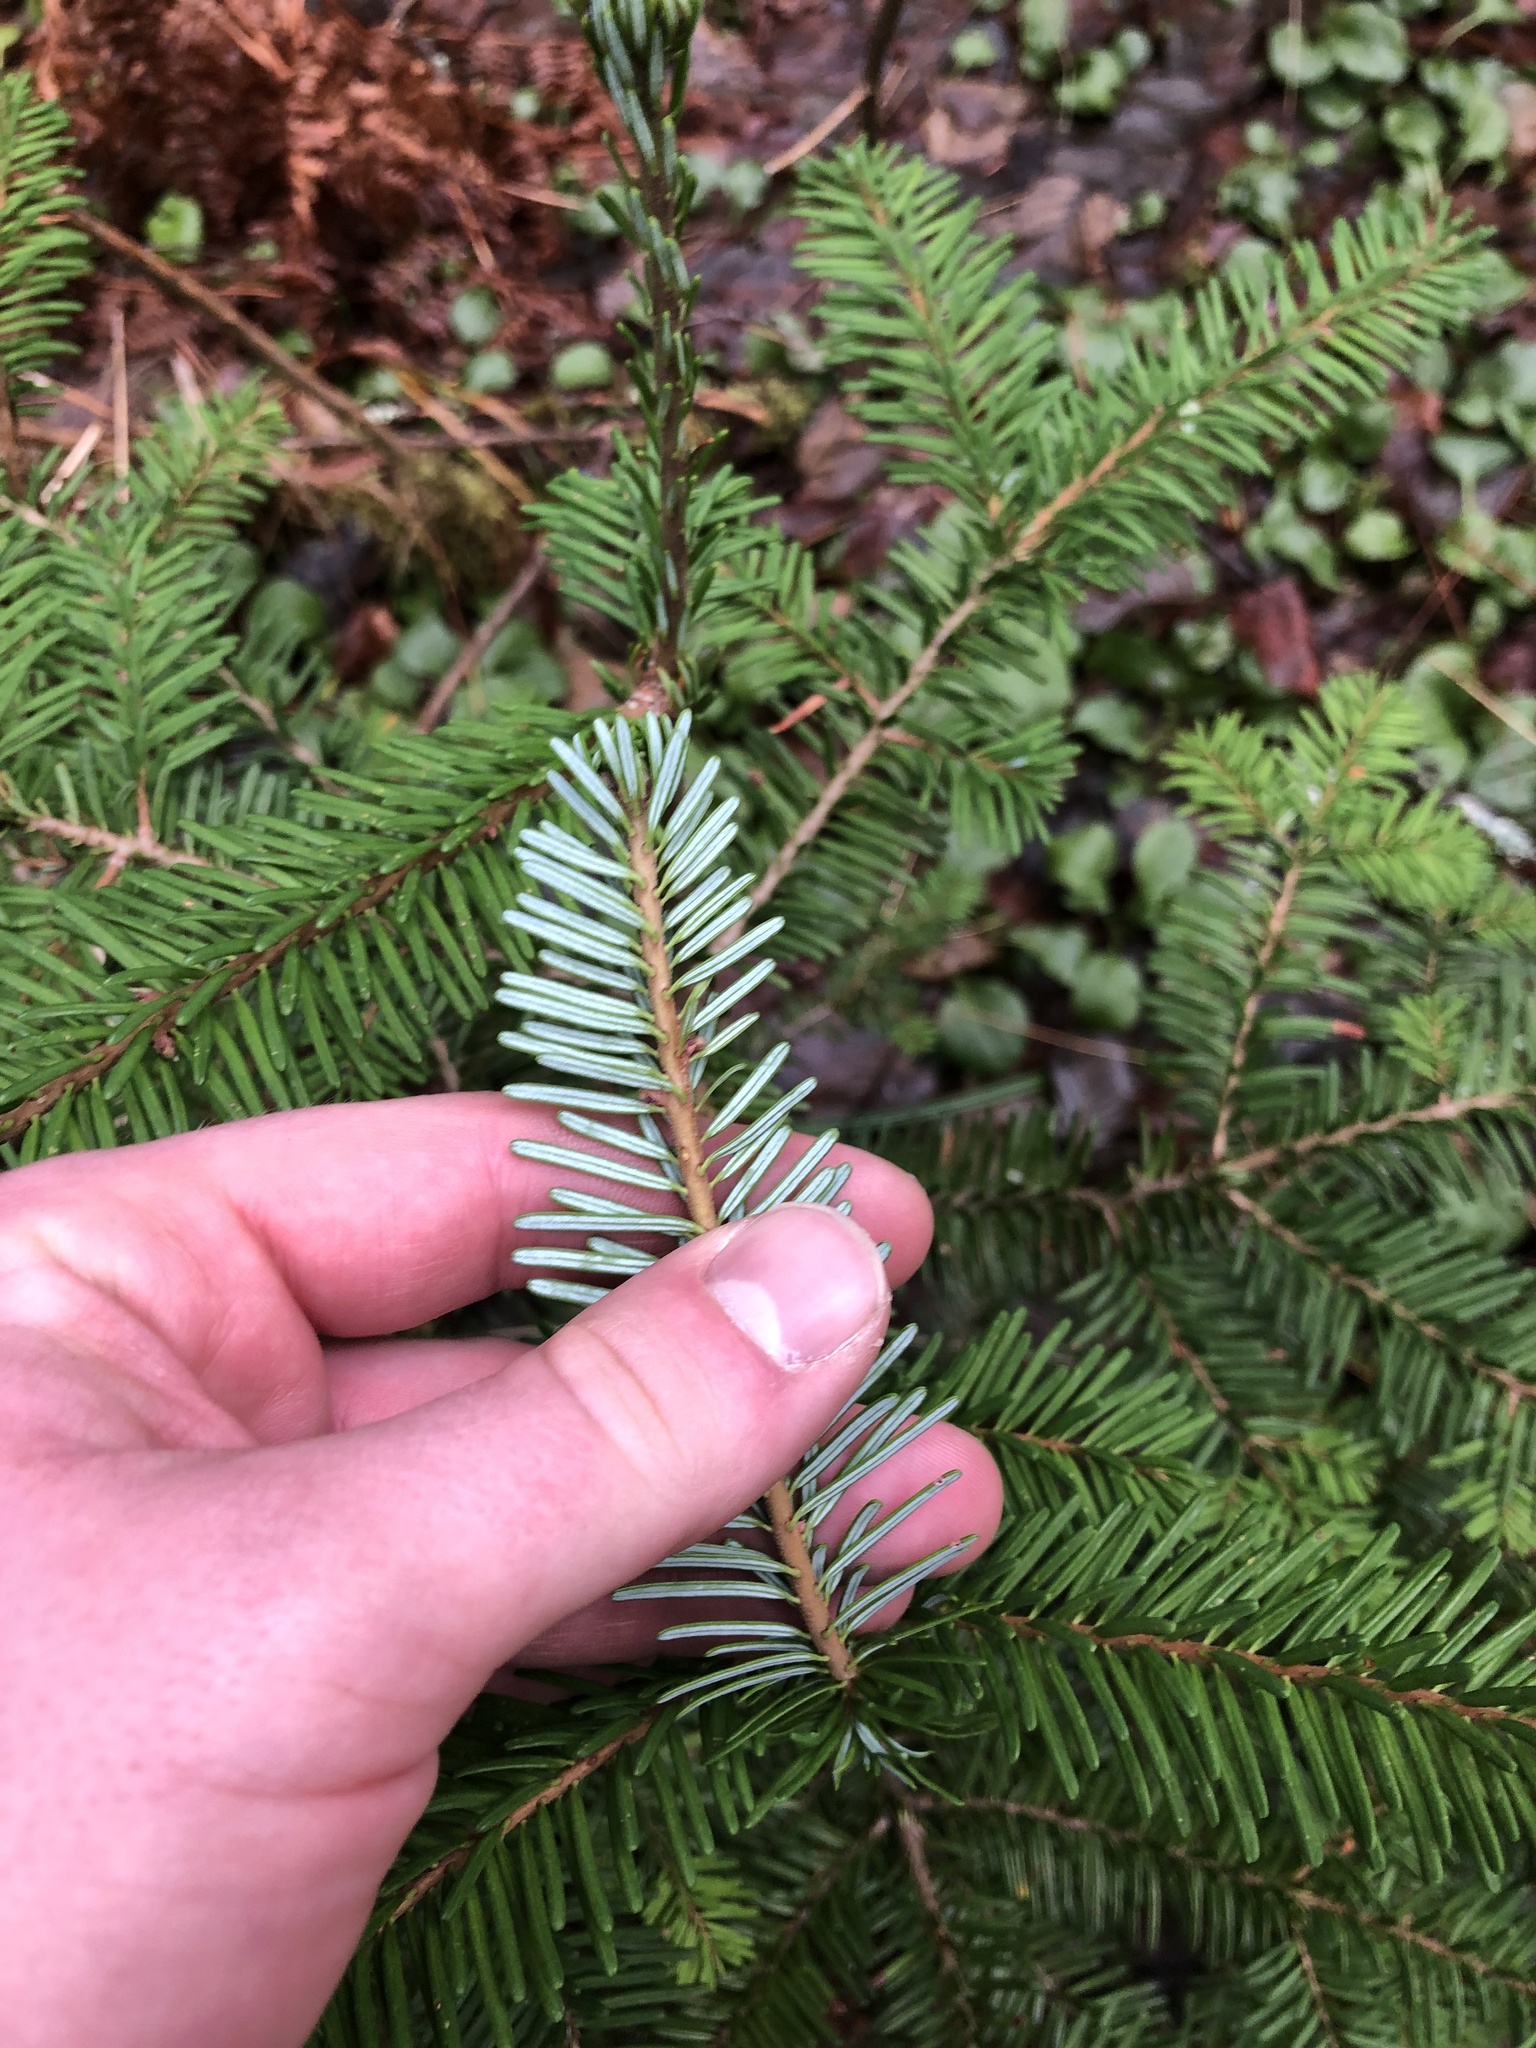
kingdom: Plantae
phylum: Tracheophyta
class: Pinopsida
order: Pinales
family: Pinaceae
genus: Abies
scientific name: Abies amabilis
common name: Pacific silver fir
